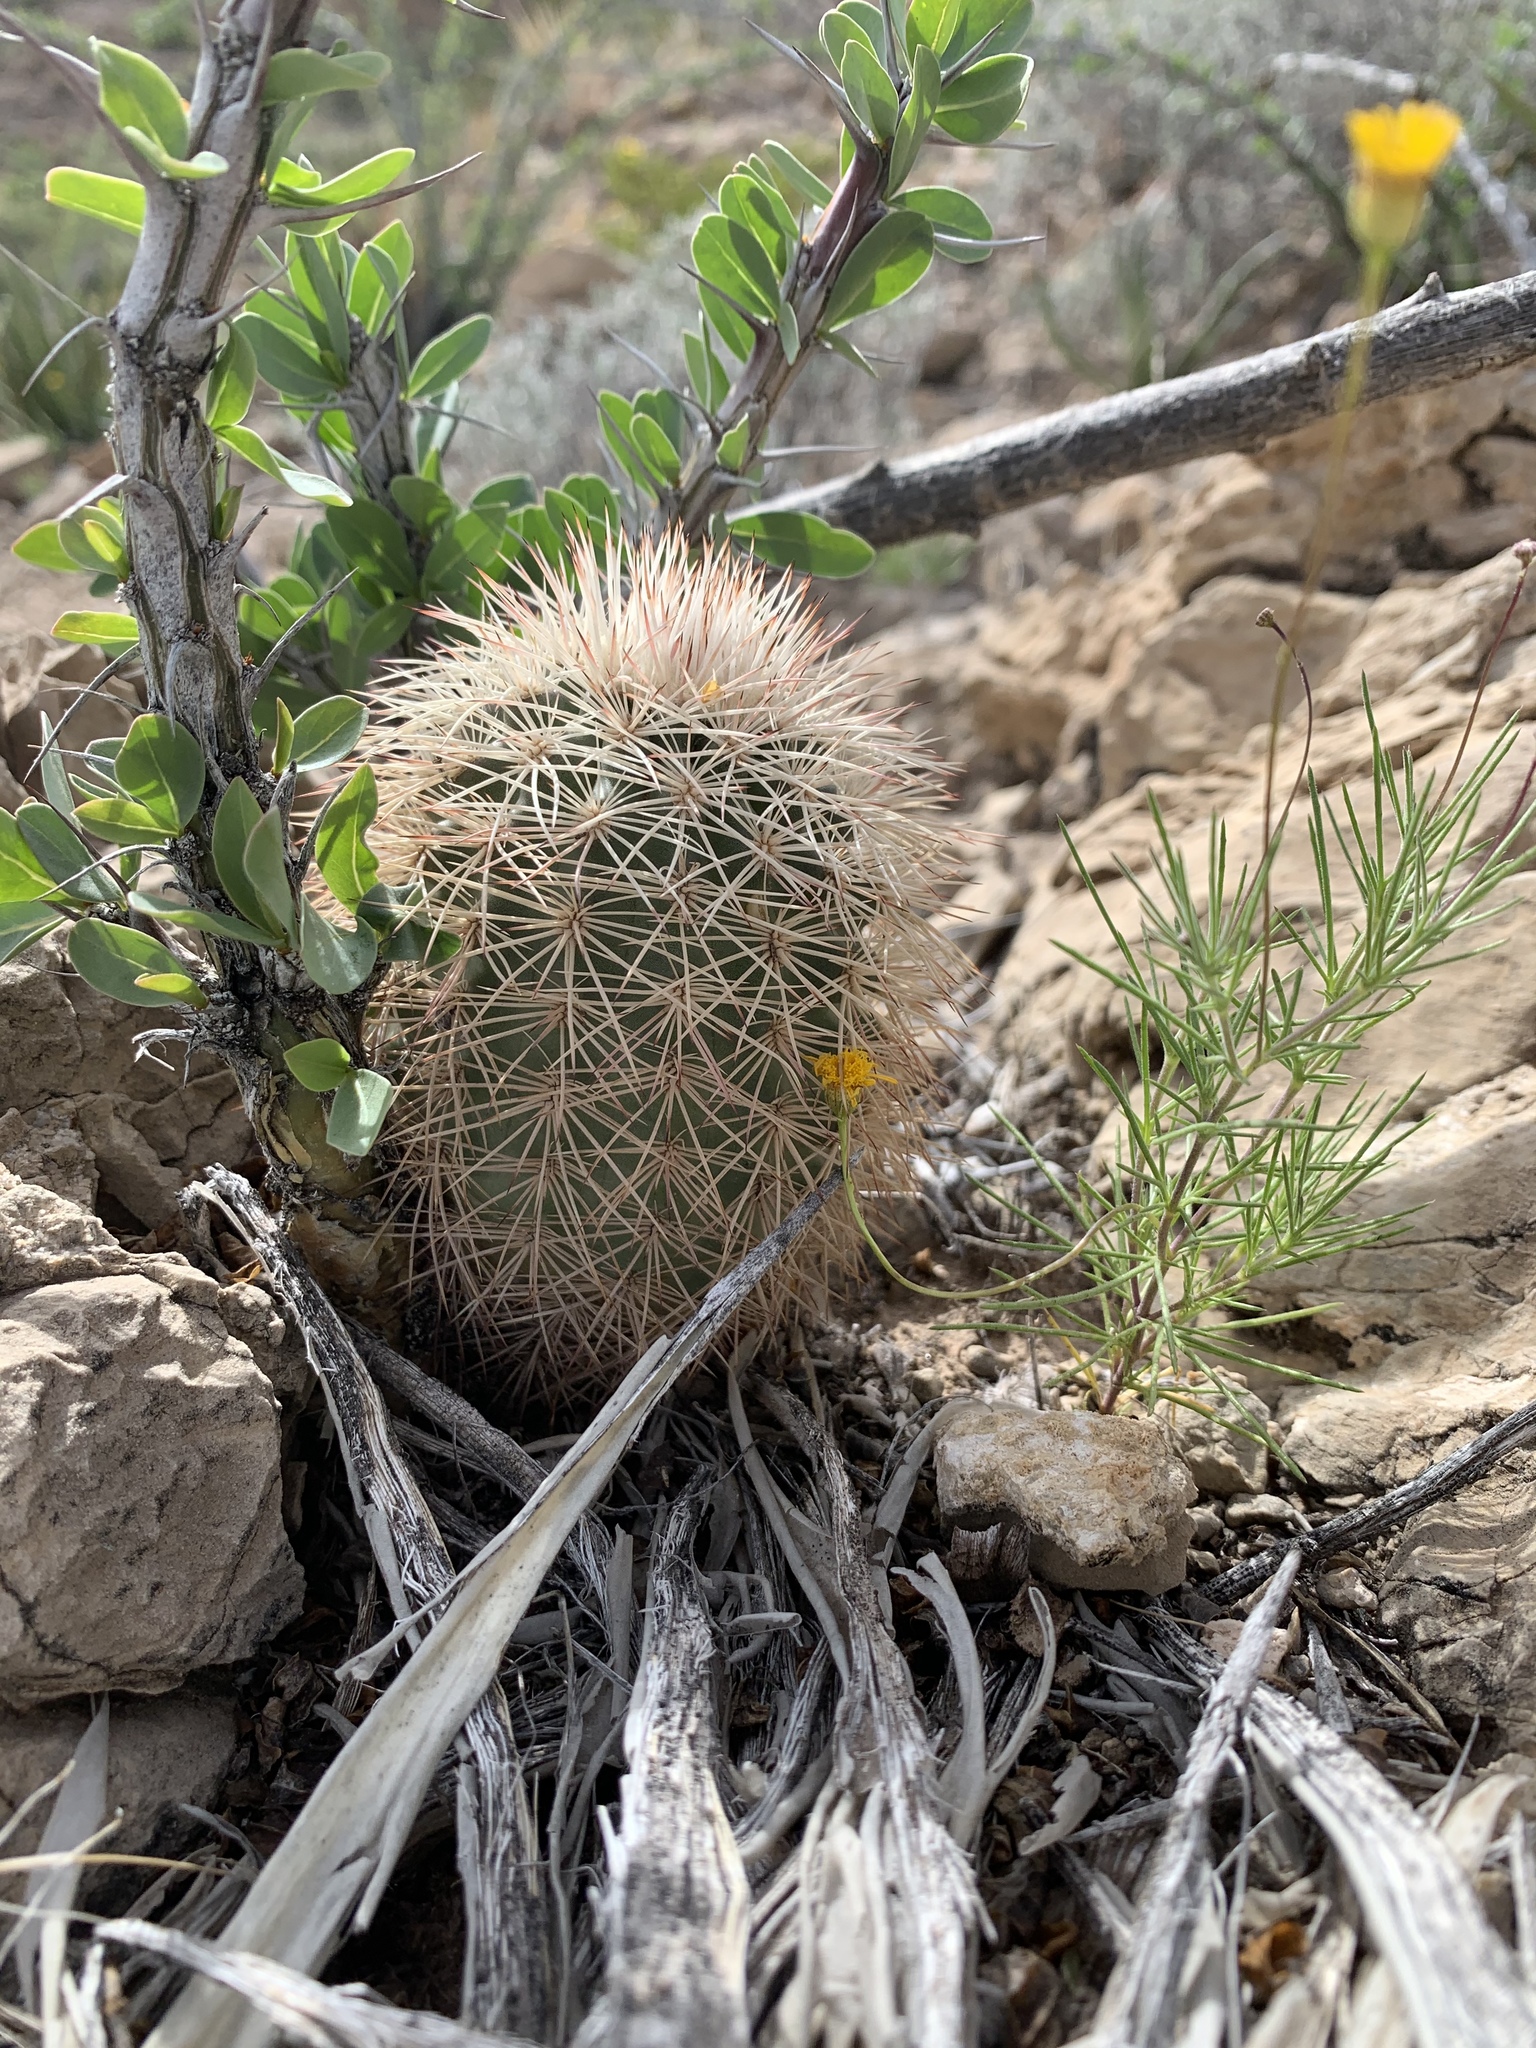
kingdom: Plantae
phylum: Tracheophyta
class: Magnoliopsida
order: Caryophyllales
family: Cactaceae
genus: Echinocereus
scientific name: Echinocereus dasyacanthus
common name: Spiny hedgehog cactus
